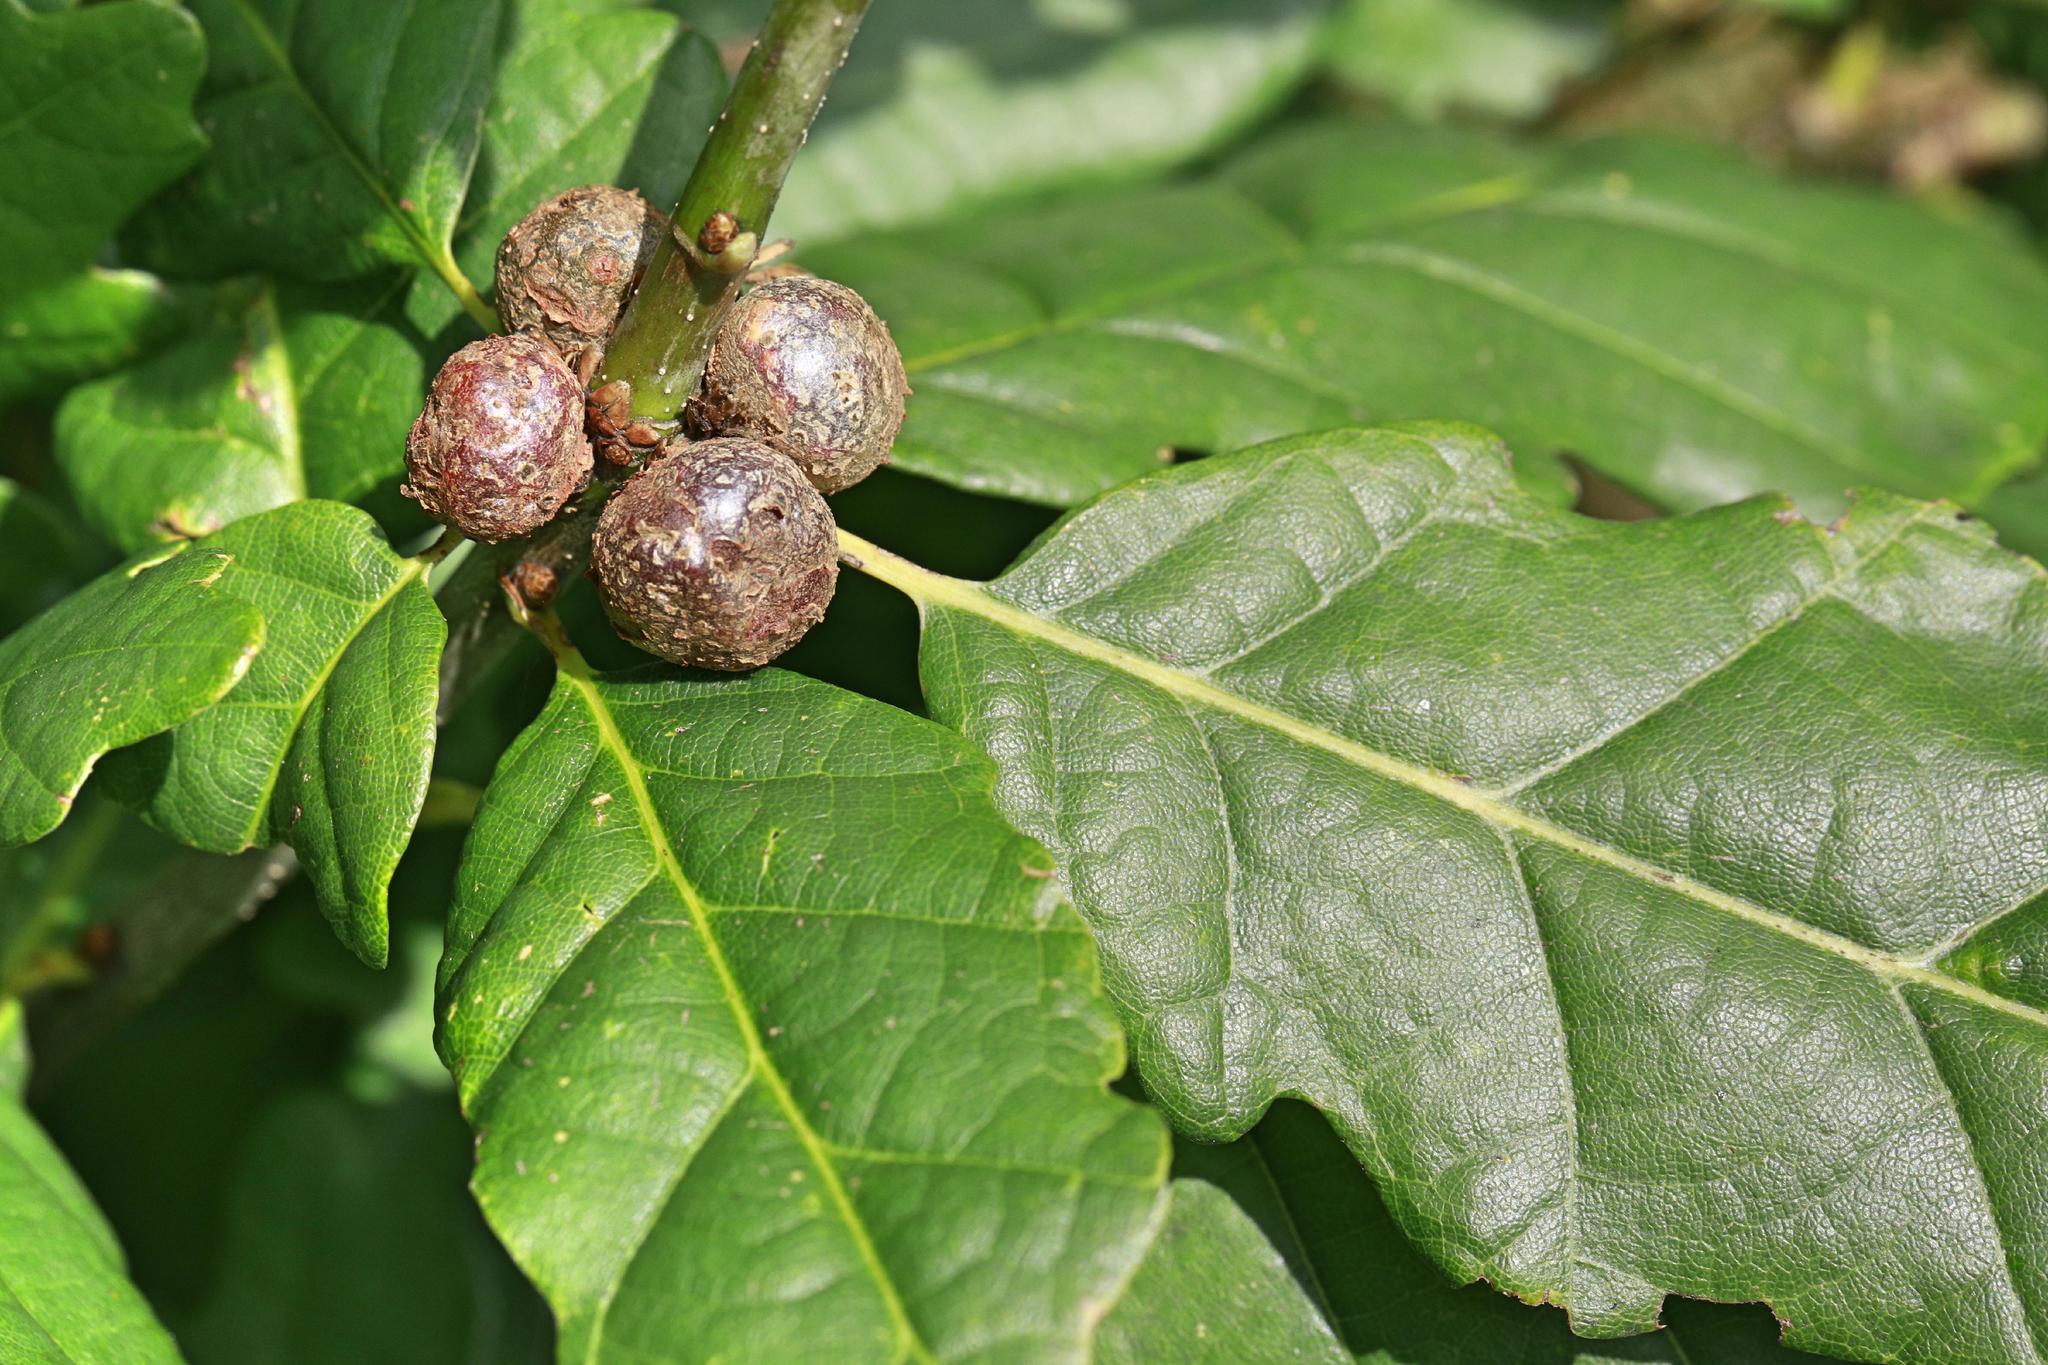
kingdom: Animalia
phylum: Arthropoda
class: Insecta
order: Hymenoptera
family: Cynipidae
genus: Andricus
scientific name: Andricus lignicolus
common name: Cola-nut gall
